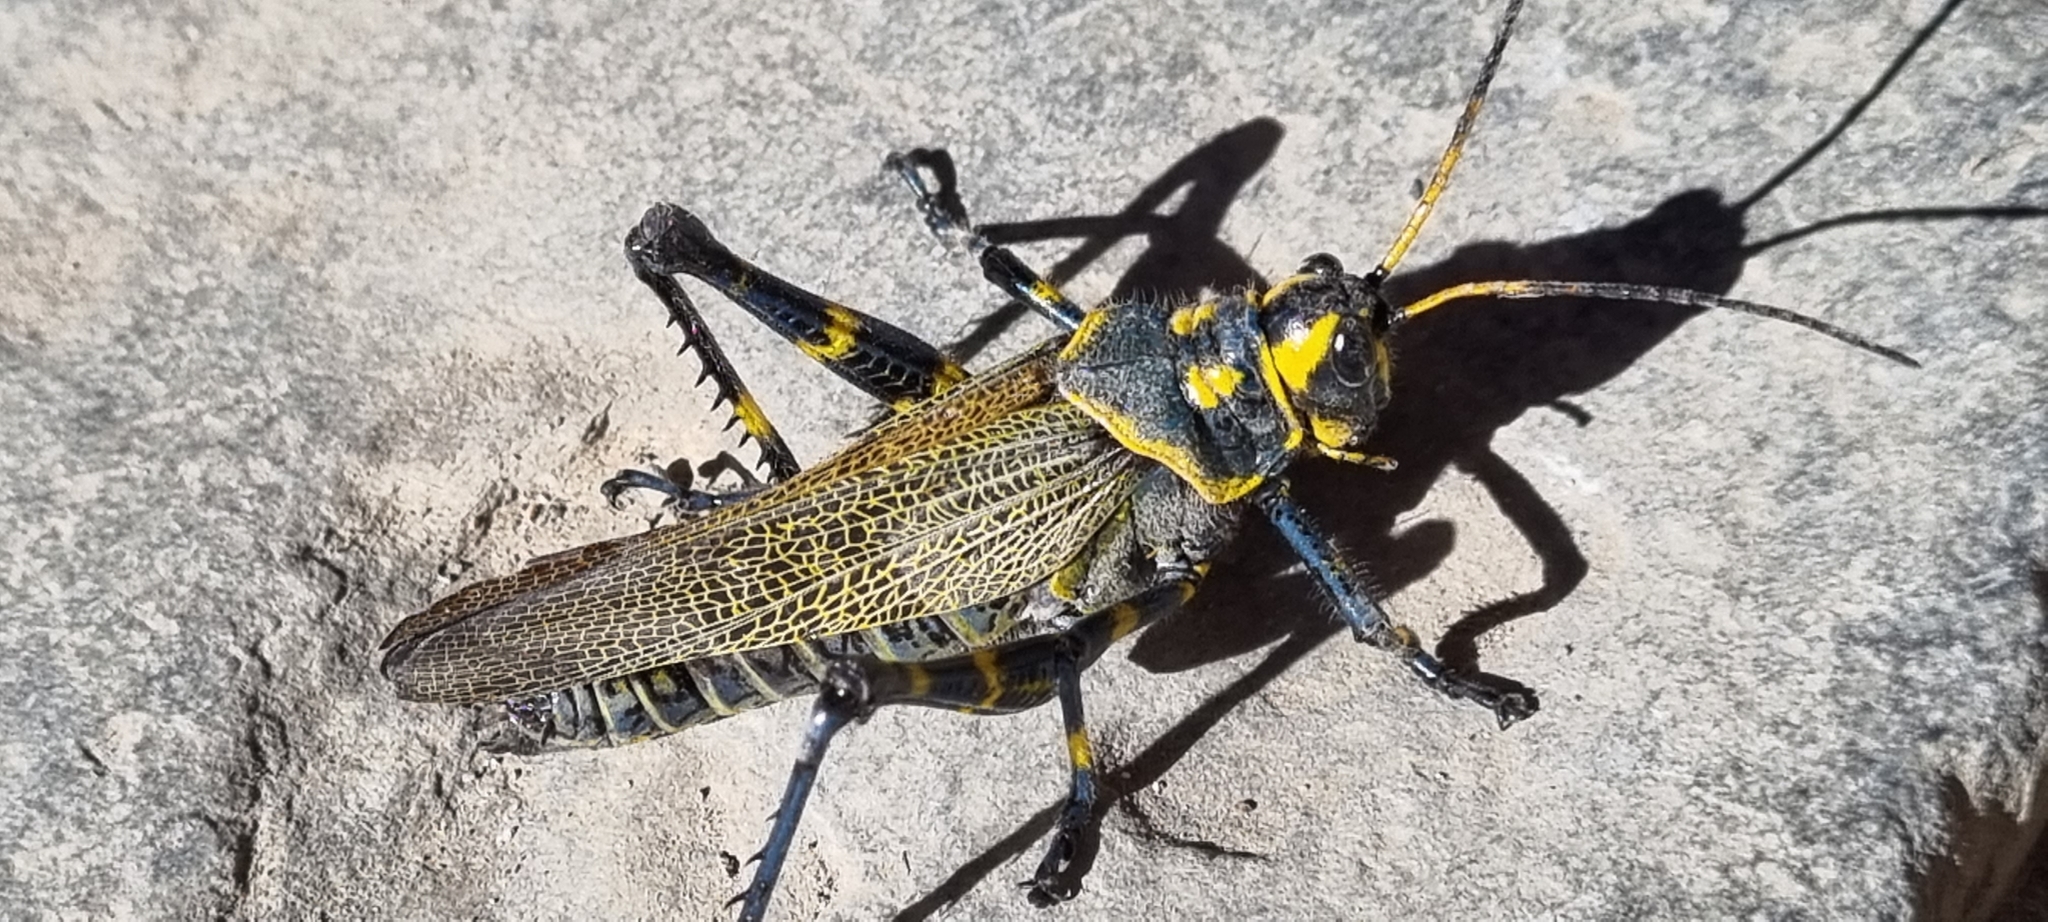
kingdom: Animalia
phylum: Arthropoda
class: Insecta
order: Orthoptera
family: Romaleidae
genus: Chromacris
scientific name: Chromacris colorata
